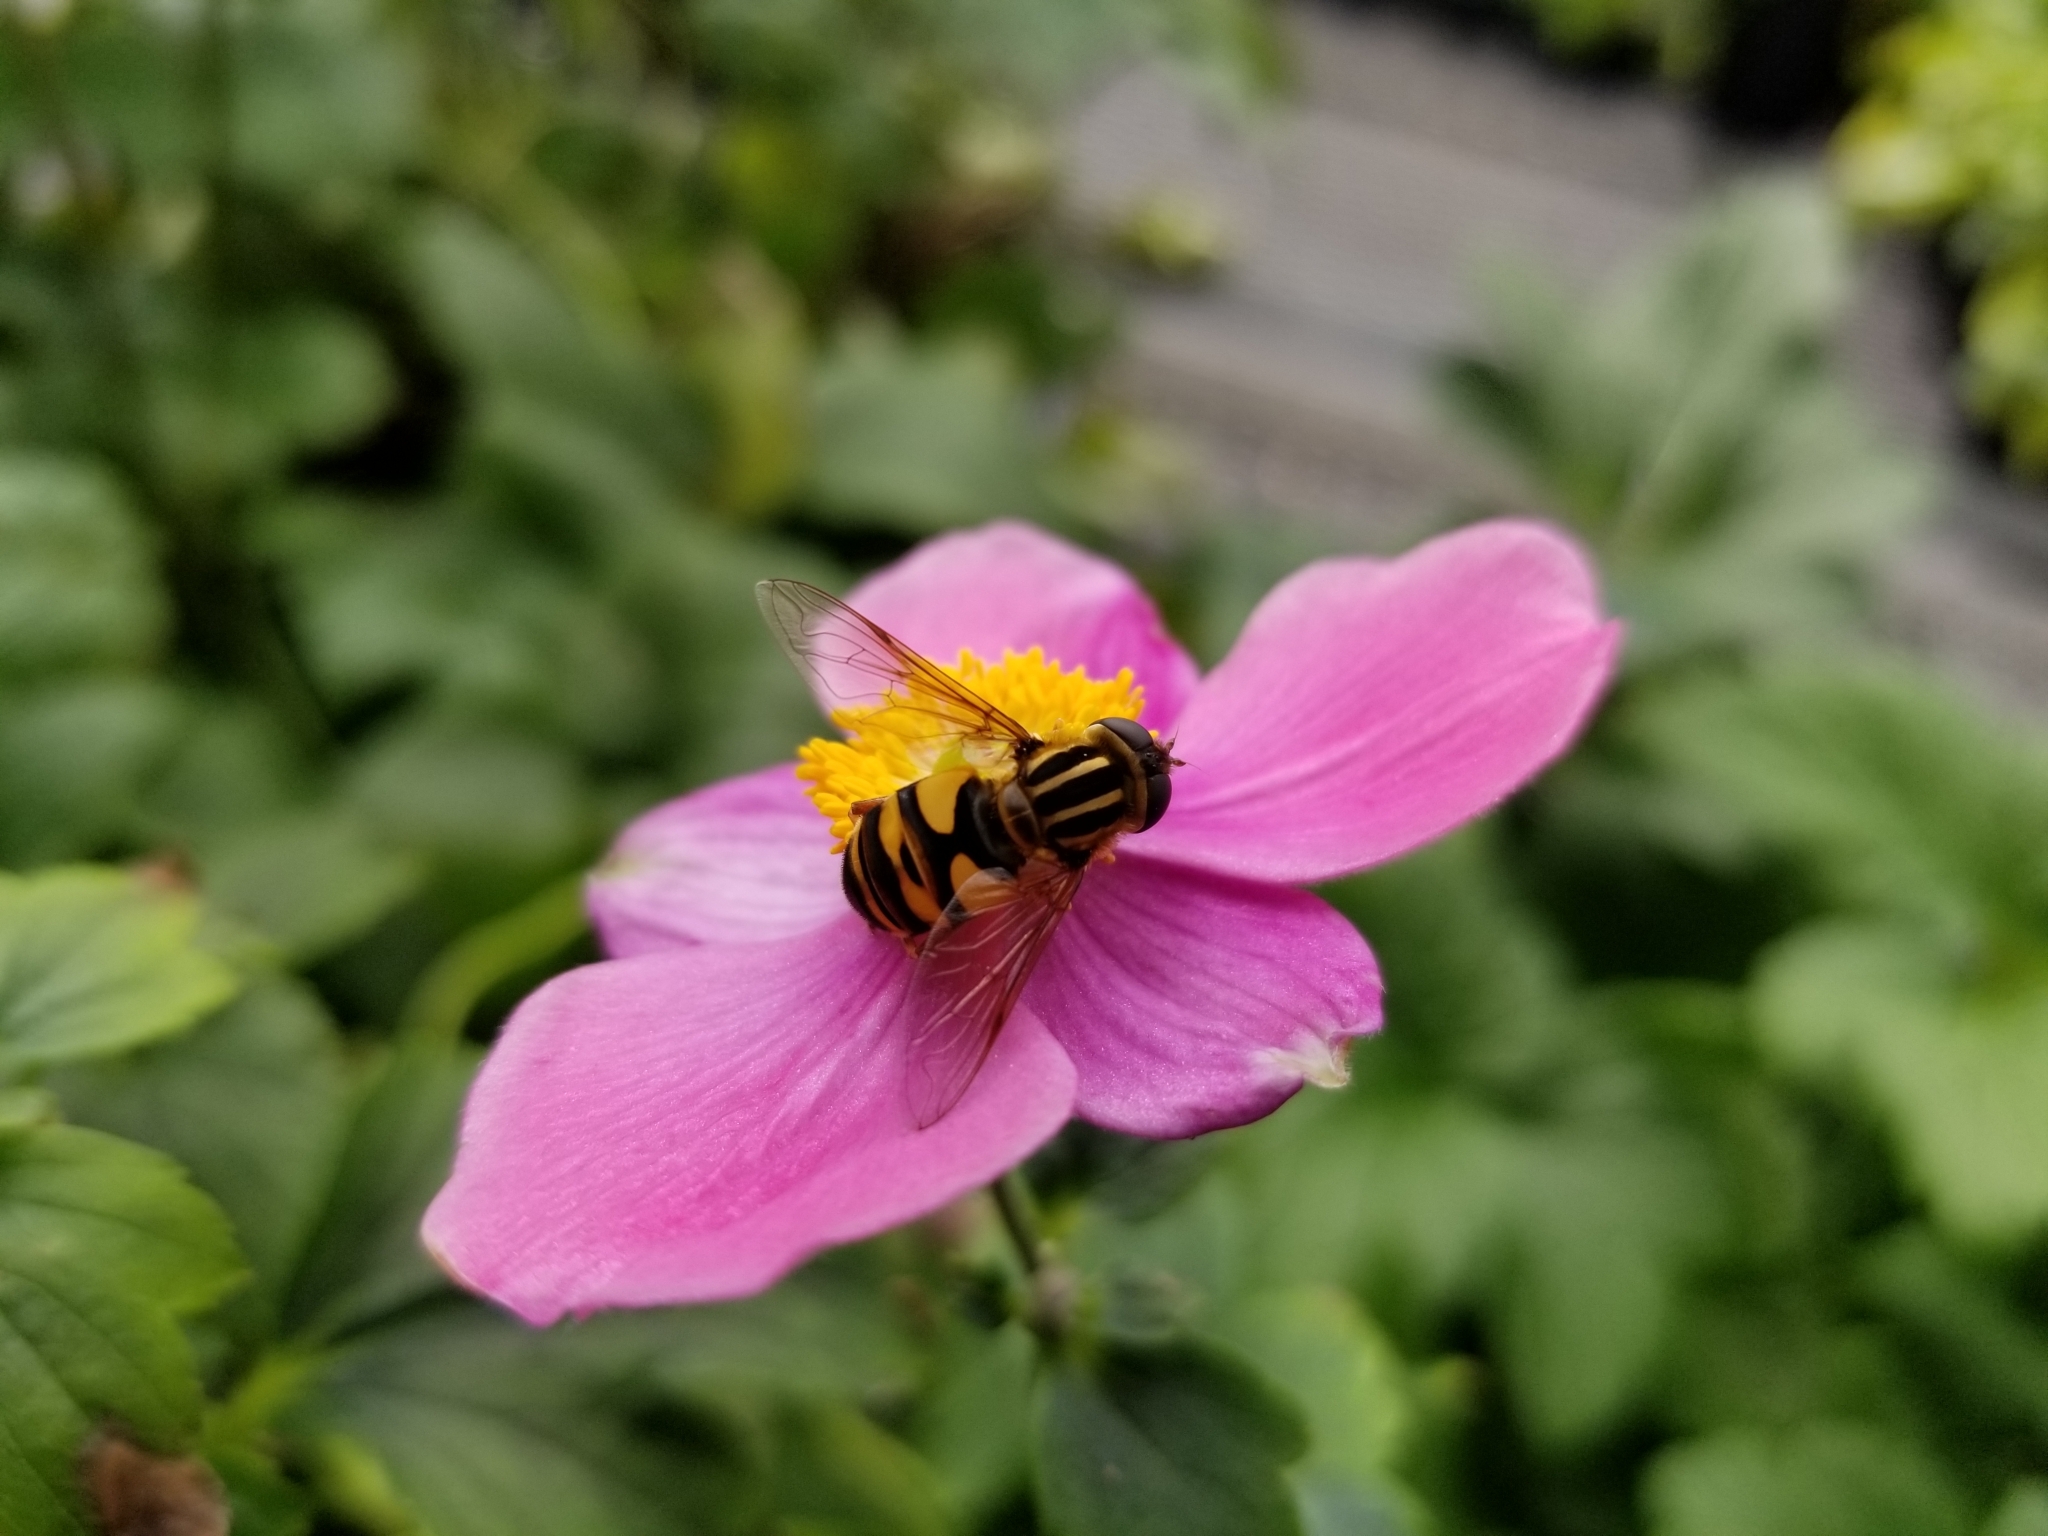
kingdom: Animalia
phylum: Arthropoda
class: Insecta
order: Diptera
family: Syrphidae
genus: Helophilus
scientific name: Helophilus fasciatus
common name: Narrow-headed marsh fly
